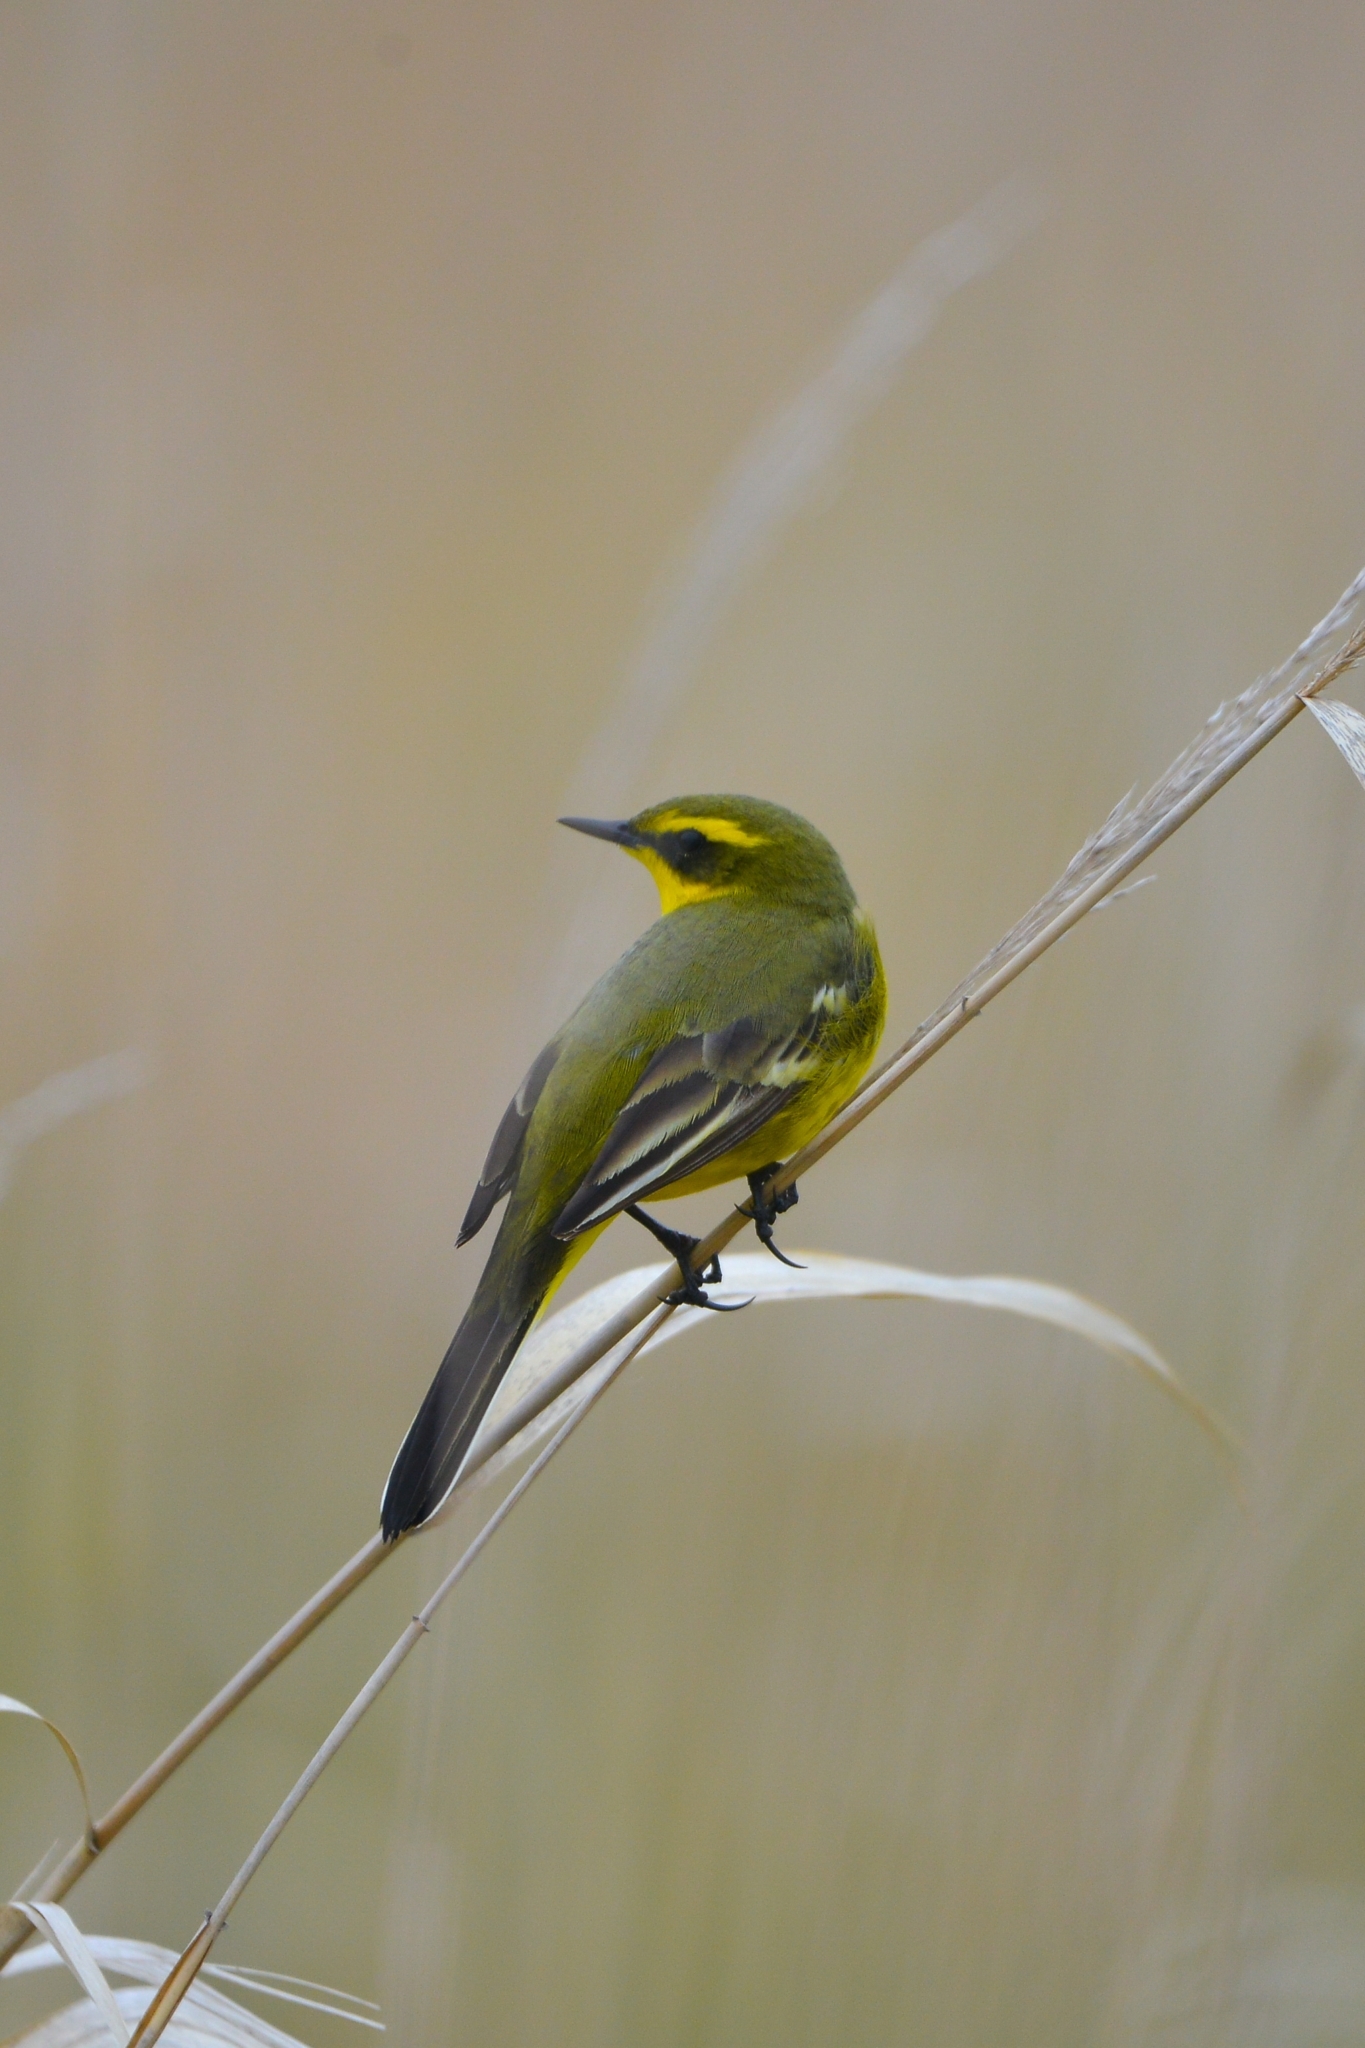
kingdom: Animalia
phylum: Chordata
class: Aves
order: Passeriformes
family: Motacillidae
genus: Motacilla
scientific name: Motacilla tschutschensis
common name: Eastern yellow wagtail
